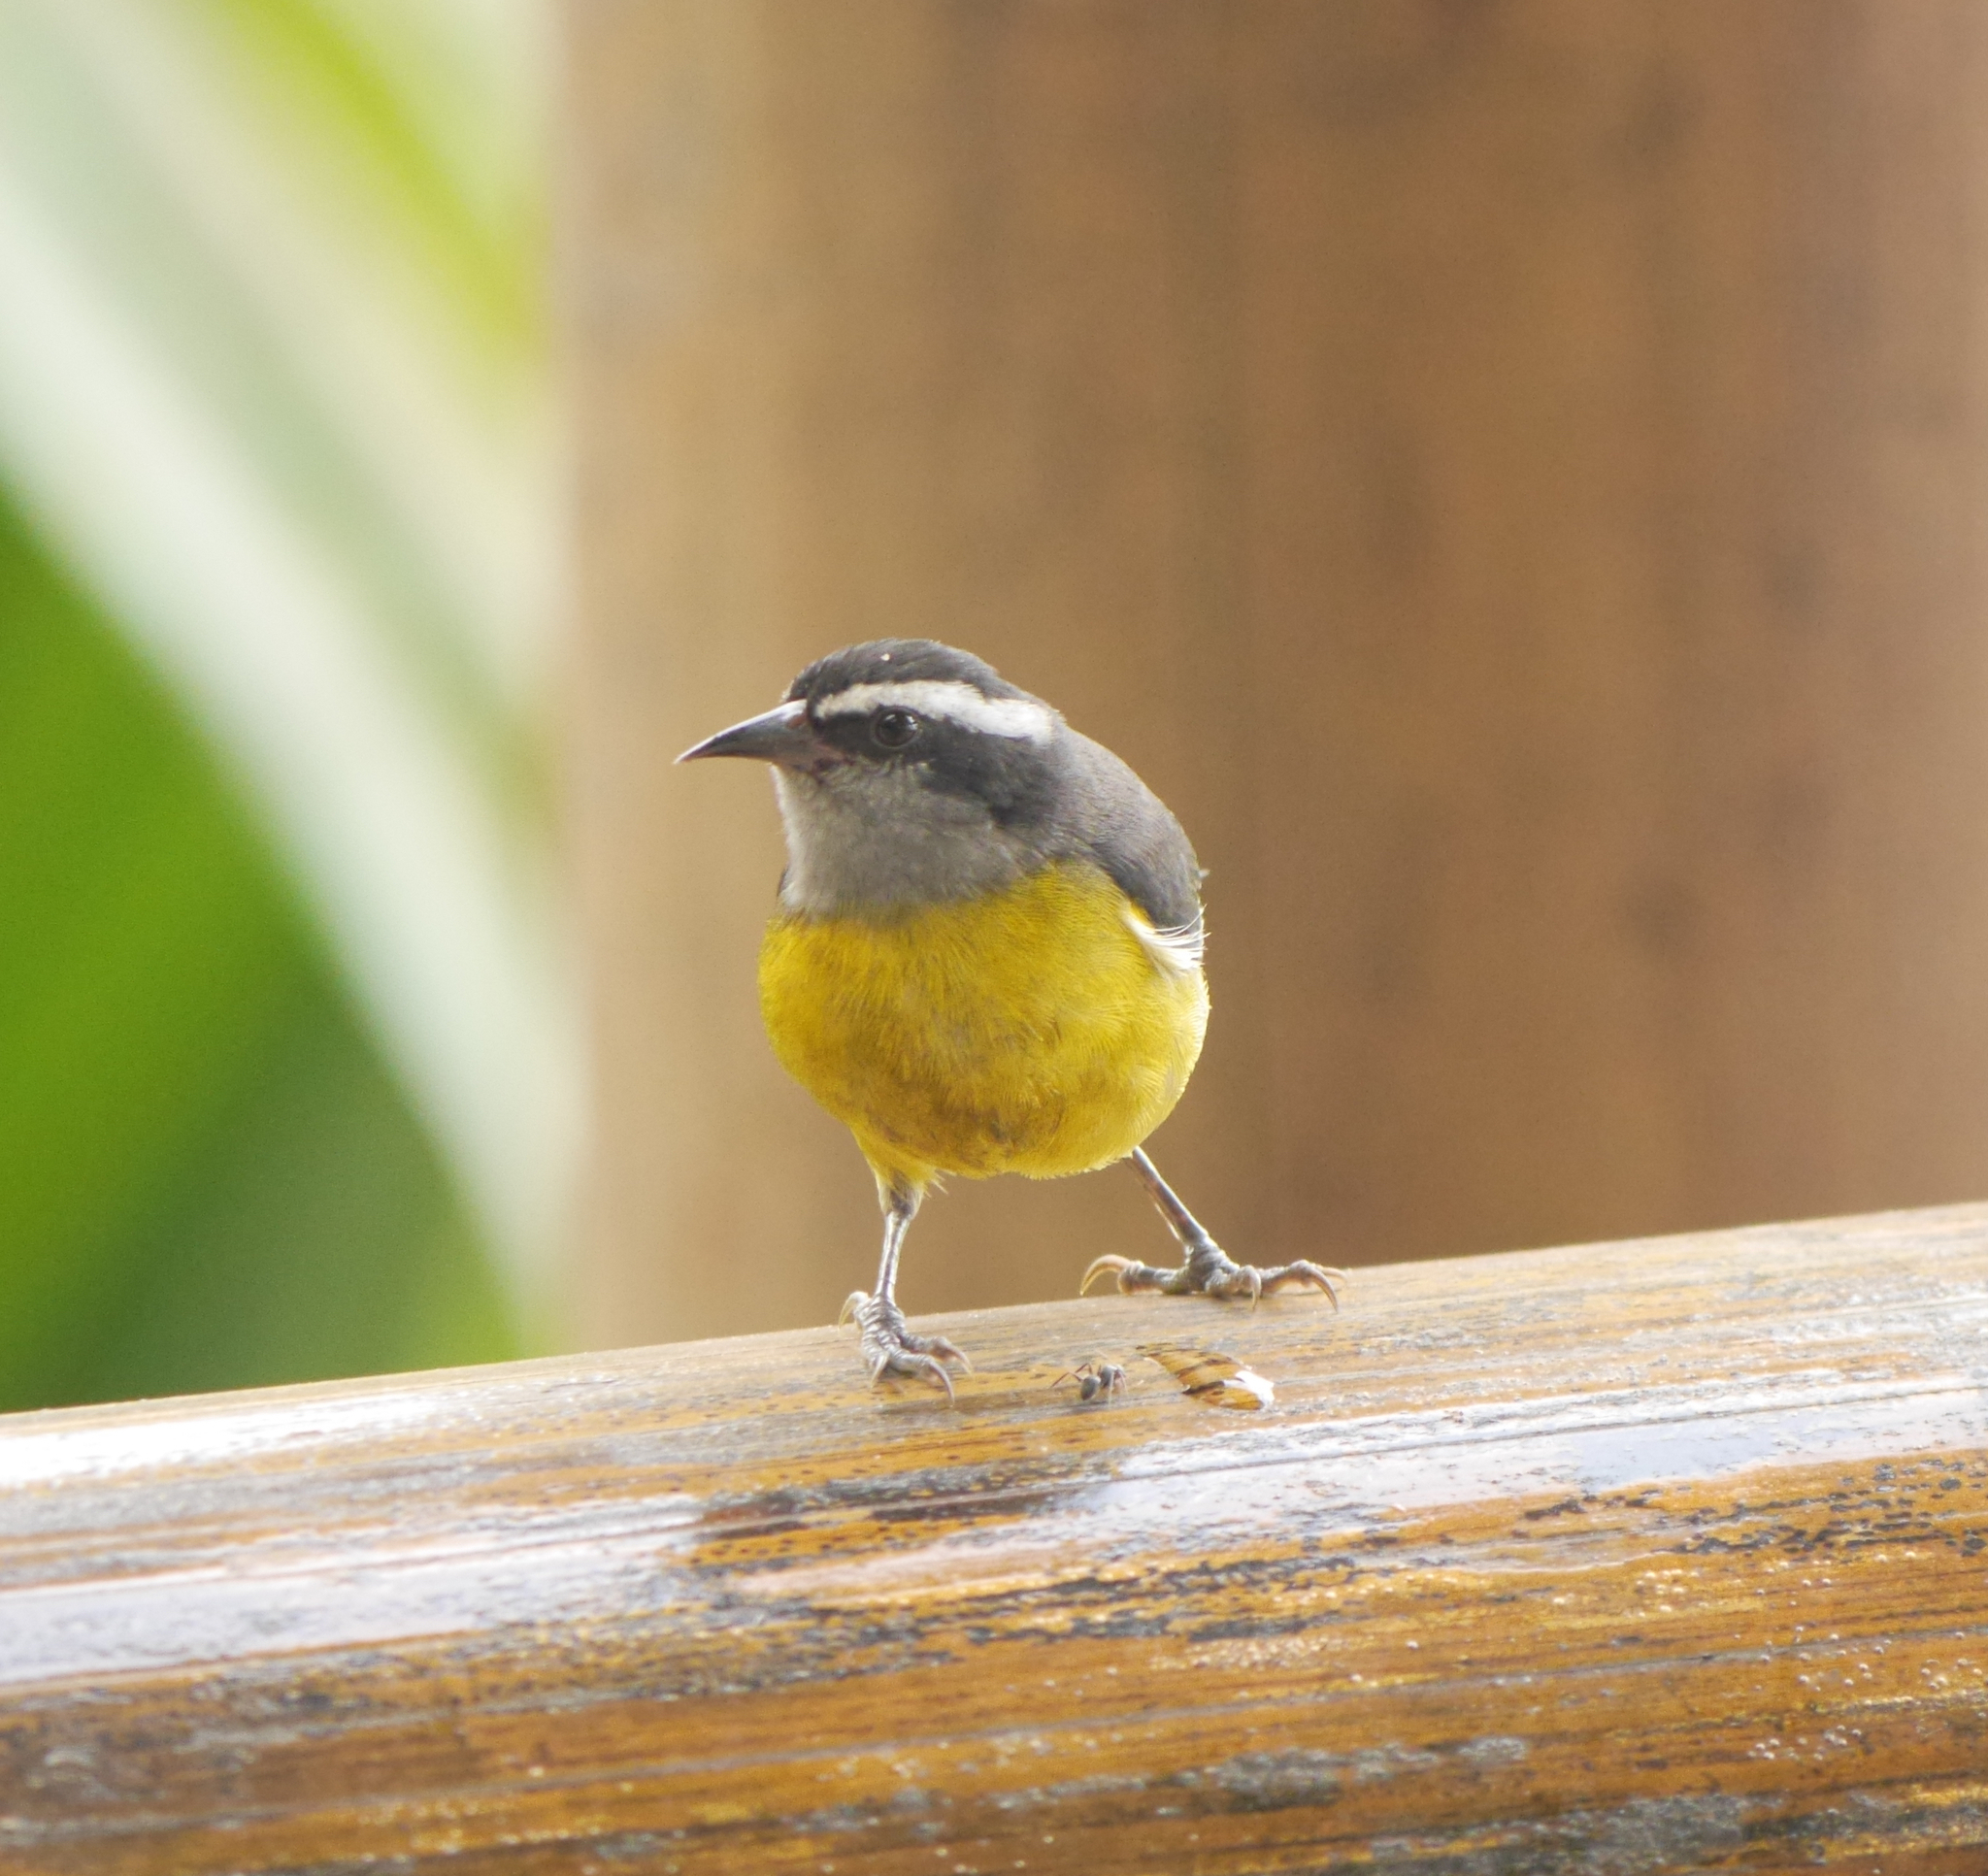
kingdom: Animalia
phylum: Chordata
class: Aves
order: Passeriformes
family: Thraupidae
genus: Coereba
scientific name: Coereba flaveola
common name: Bananaquit
